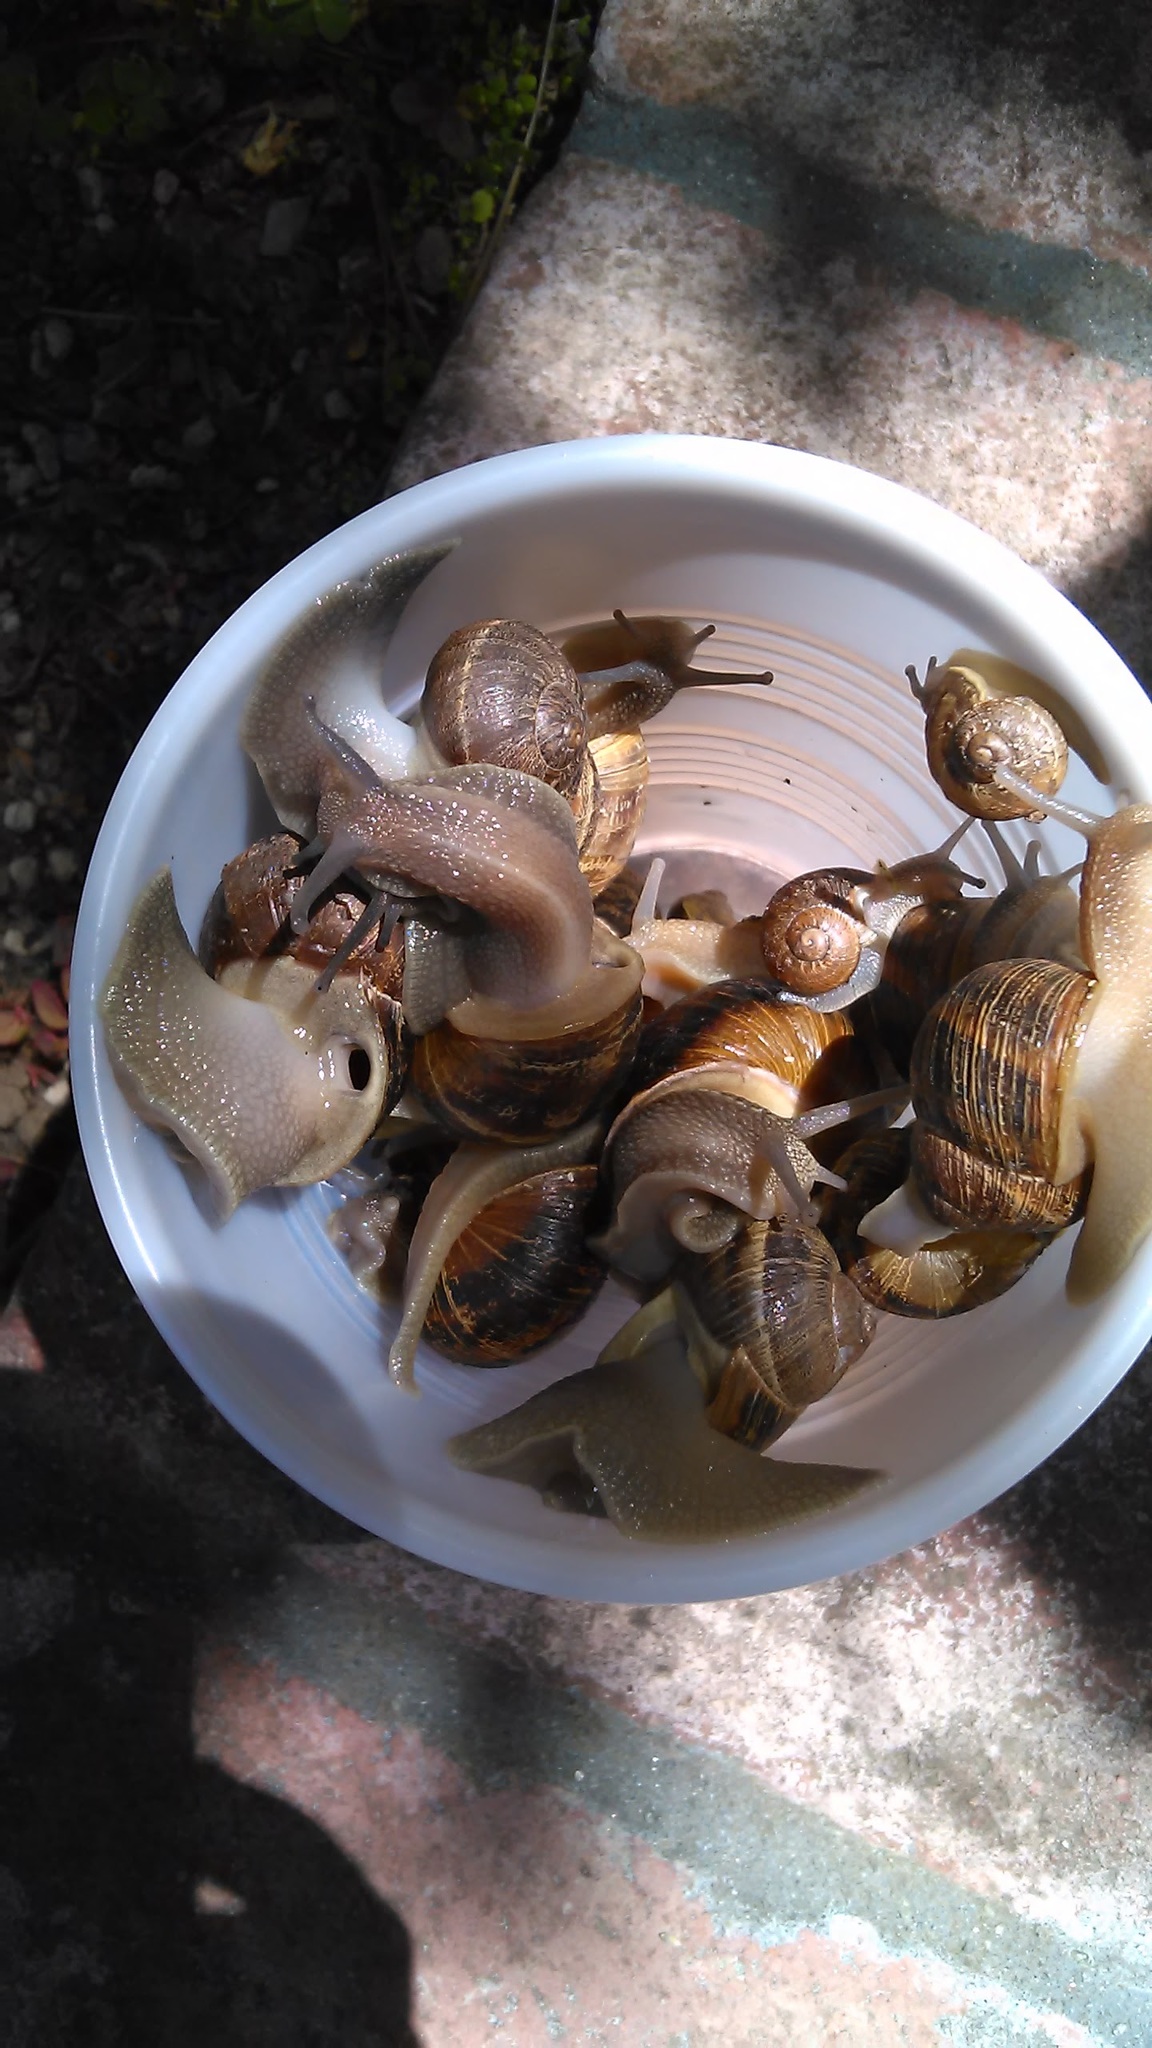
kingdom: Animalia
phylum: Mollusca
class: Gastropoda
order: Stylommatophora
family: Helicidae
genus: Cornu
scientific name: Cornu aspersum
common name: Brown garden snail
